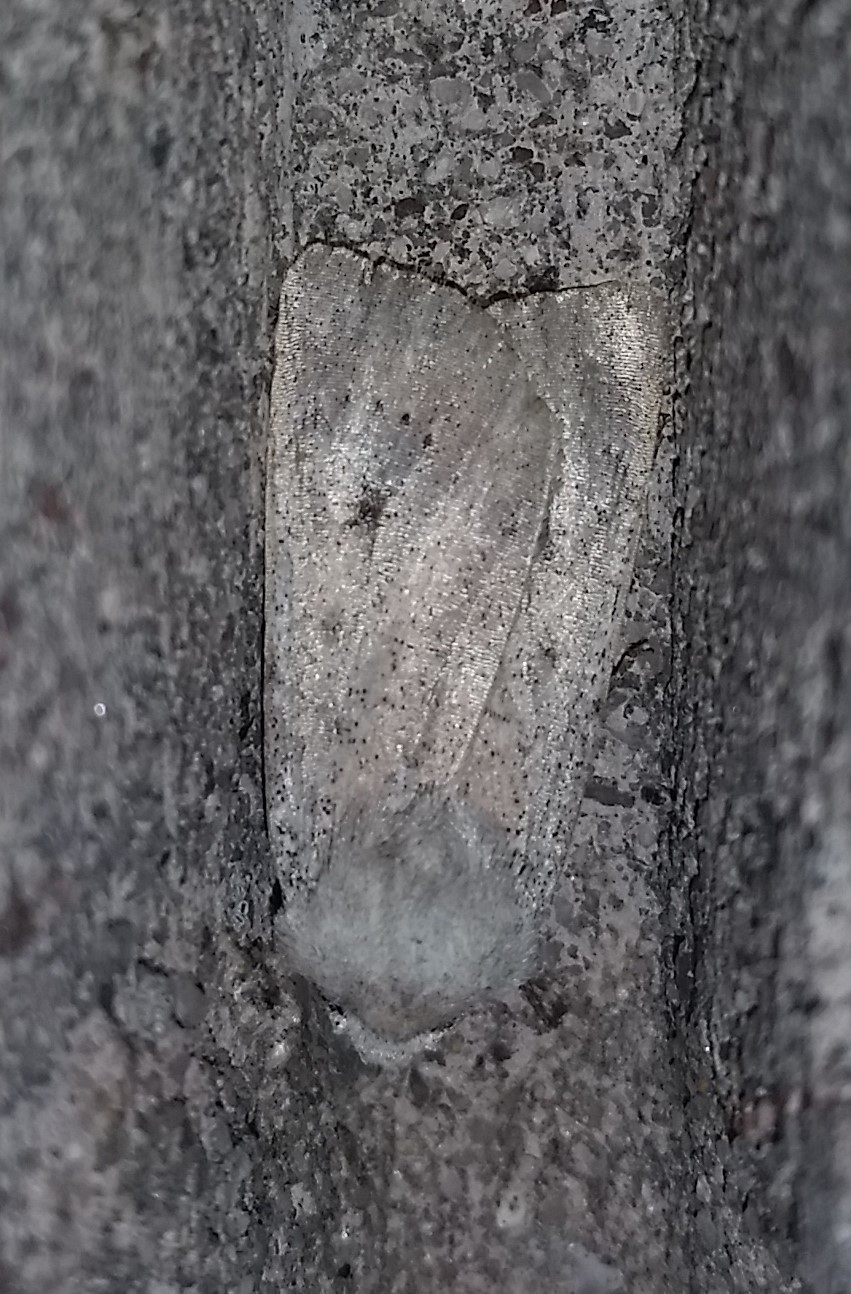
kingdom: Animalia
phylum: Arthropoda
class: Insecta
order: Lepidoptera
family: Noctuidae
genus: Agrotis
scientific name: Agrotis vetusta
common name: Old man dart
